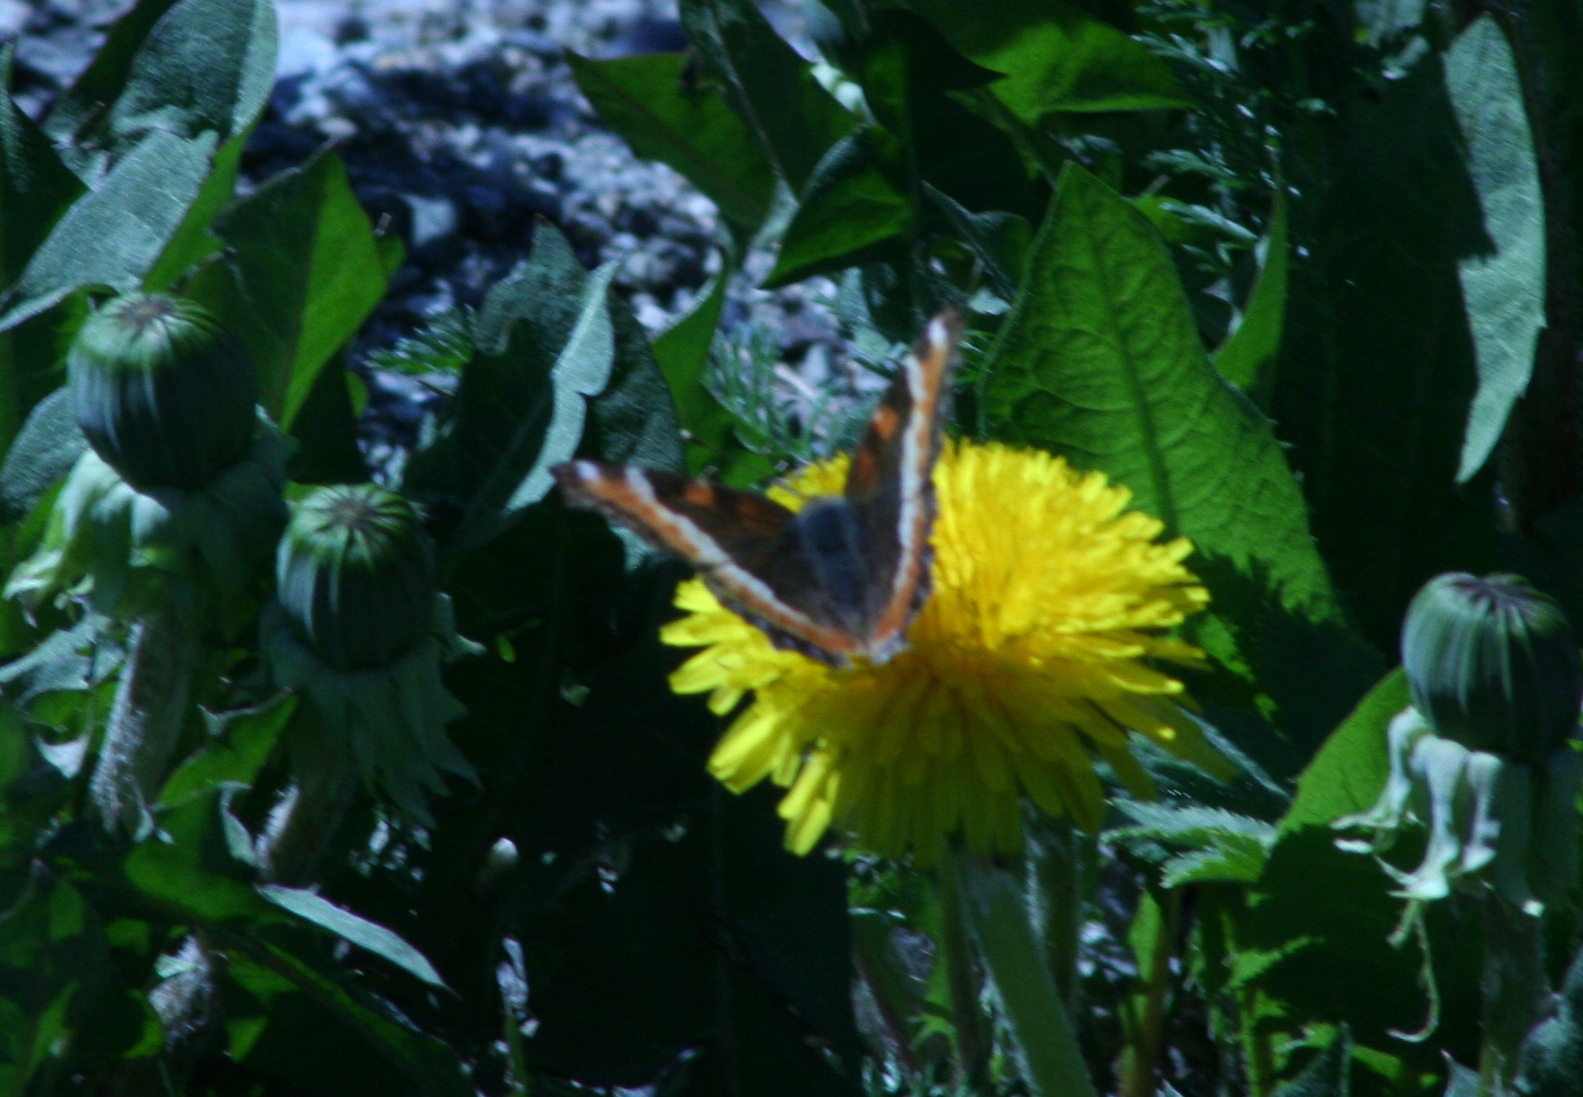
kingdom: Animalia
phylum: Arthropoda
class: Insecta
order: Lepidoptera
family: Nymphalidae
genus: Aglais
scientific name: Aglais milberti
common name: Milbert's tortoiseshell
